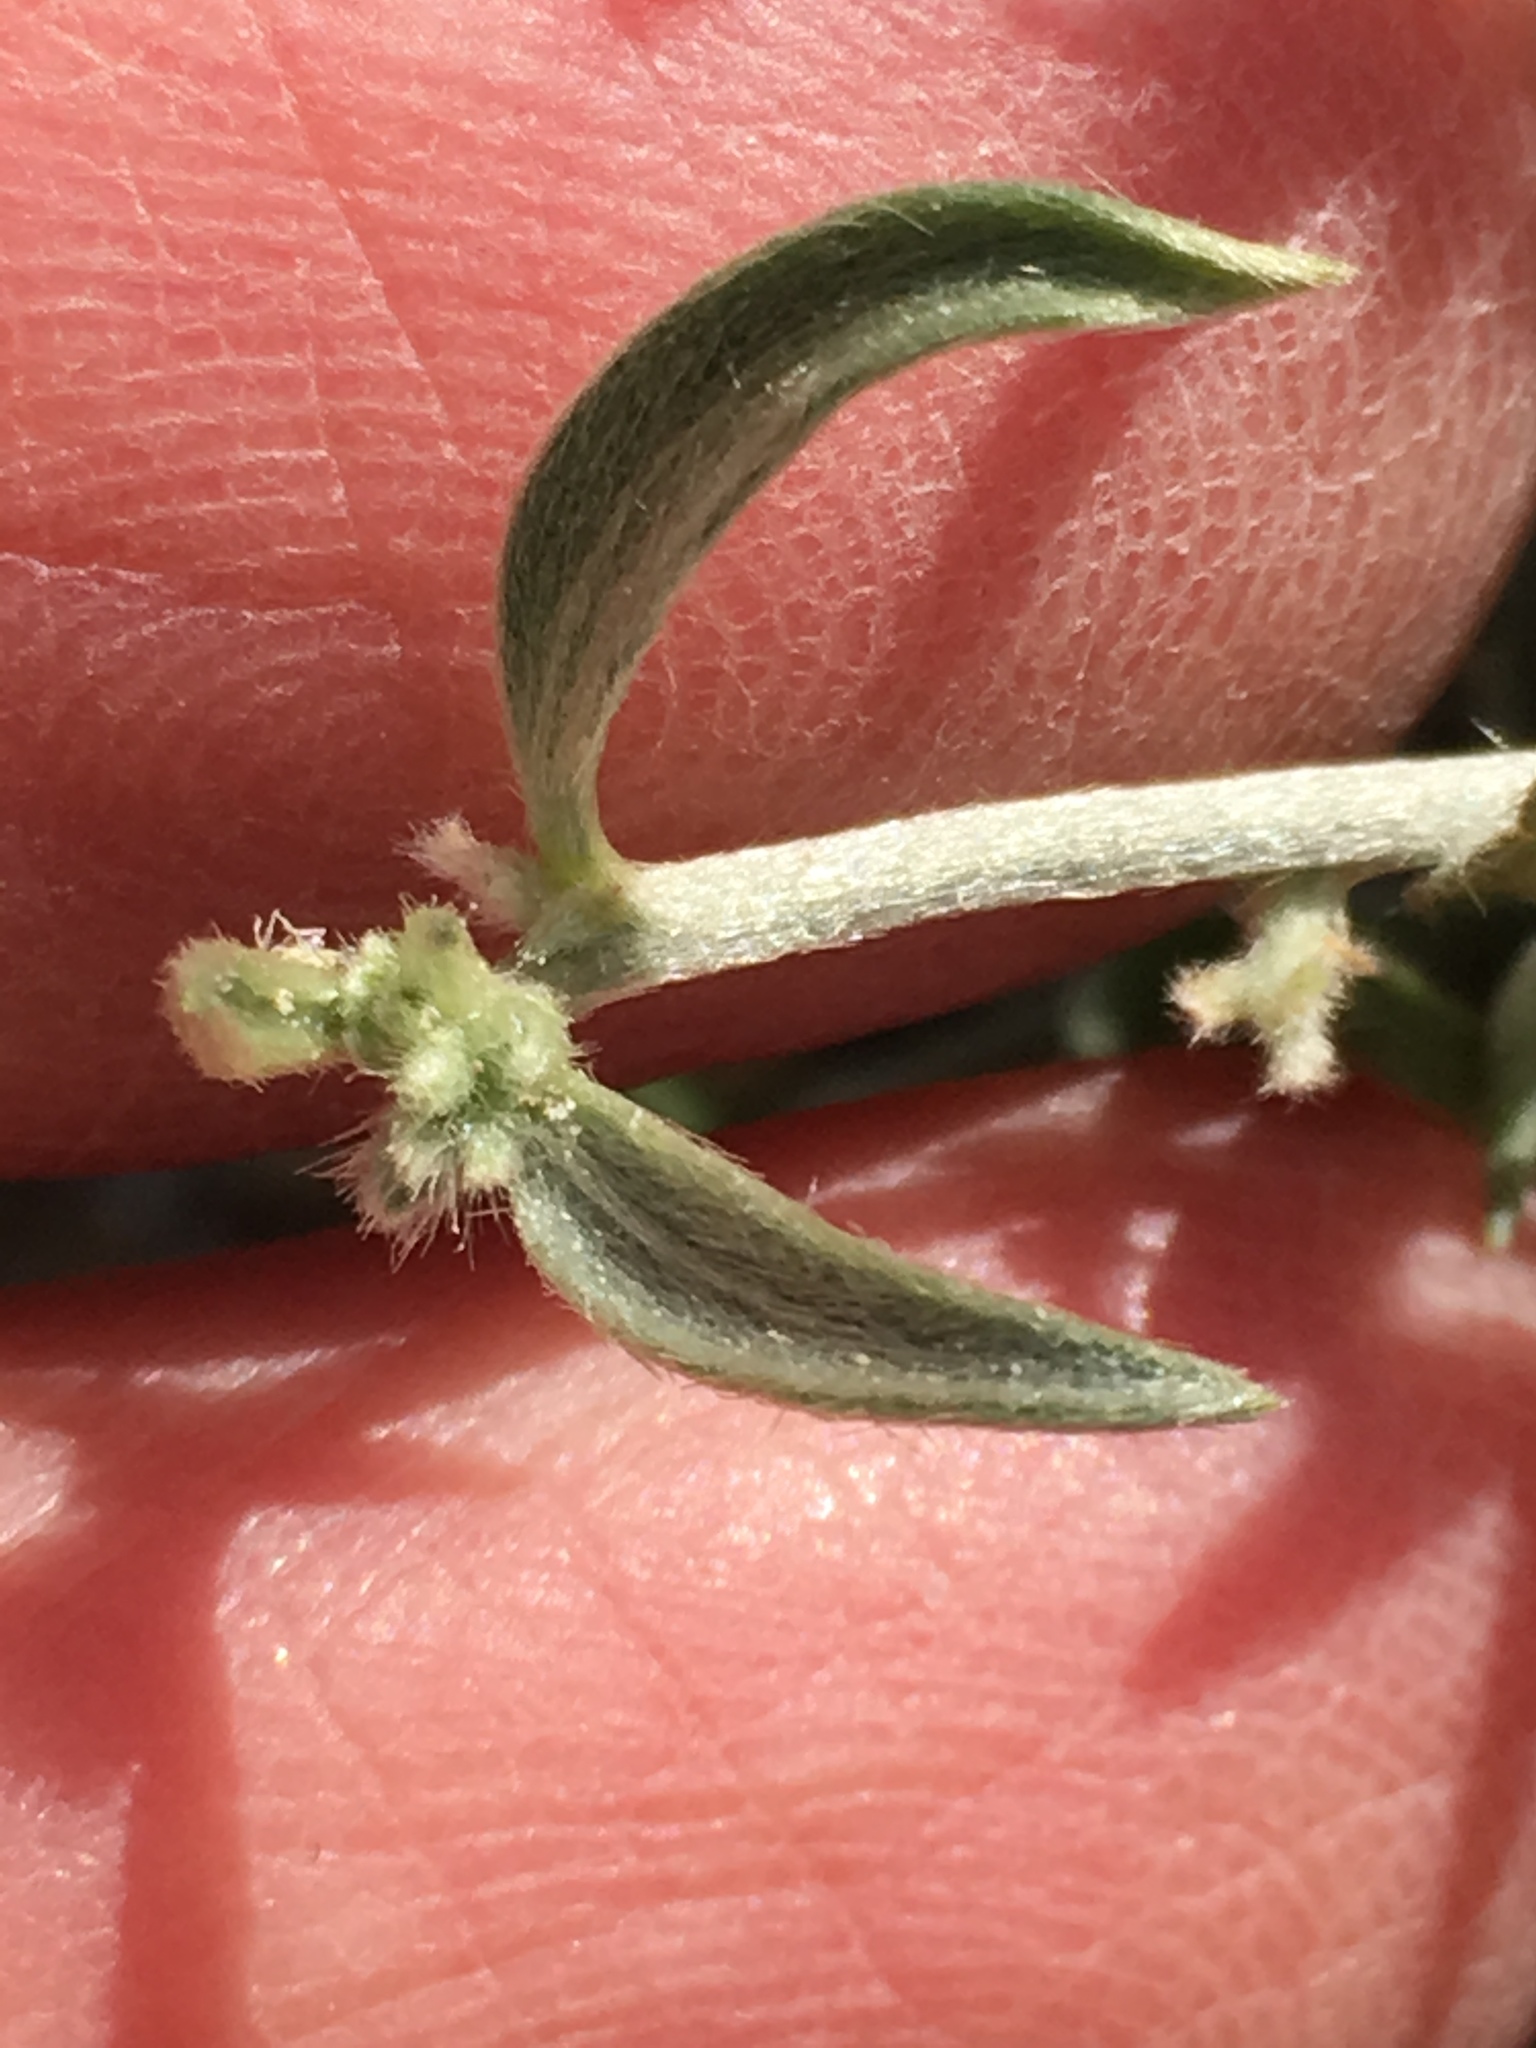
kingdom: Plantae
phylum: Tracheophyta
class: Magnoliopsida
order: Malpighiales
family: Euphorbiaceae
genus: Ditaxis
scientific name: Ditaxis lanceolata
